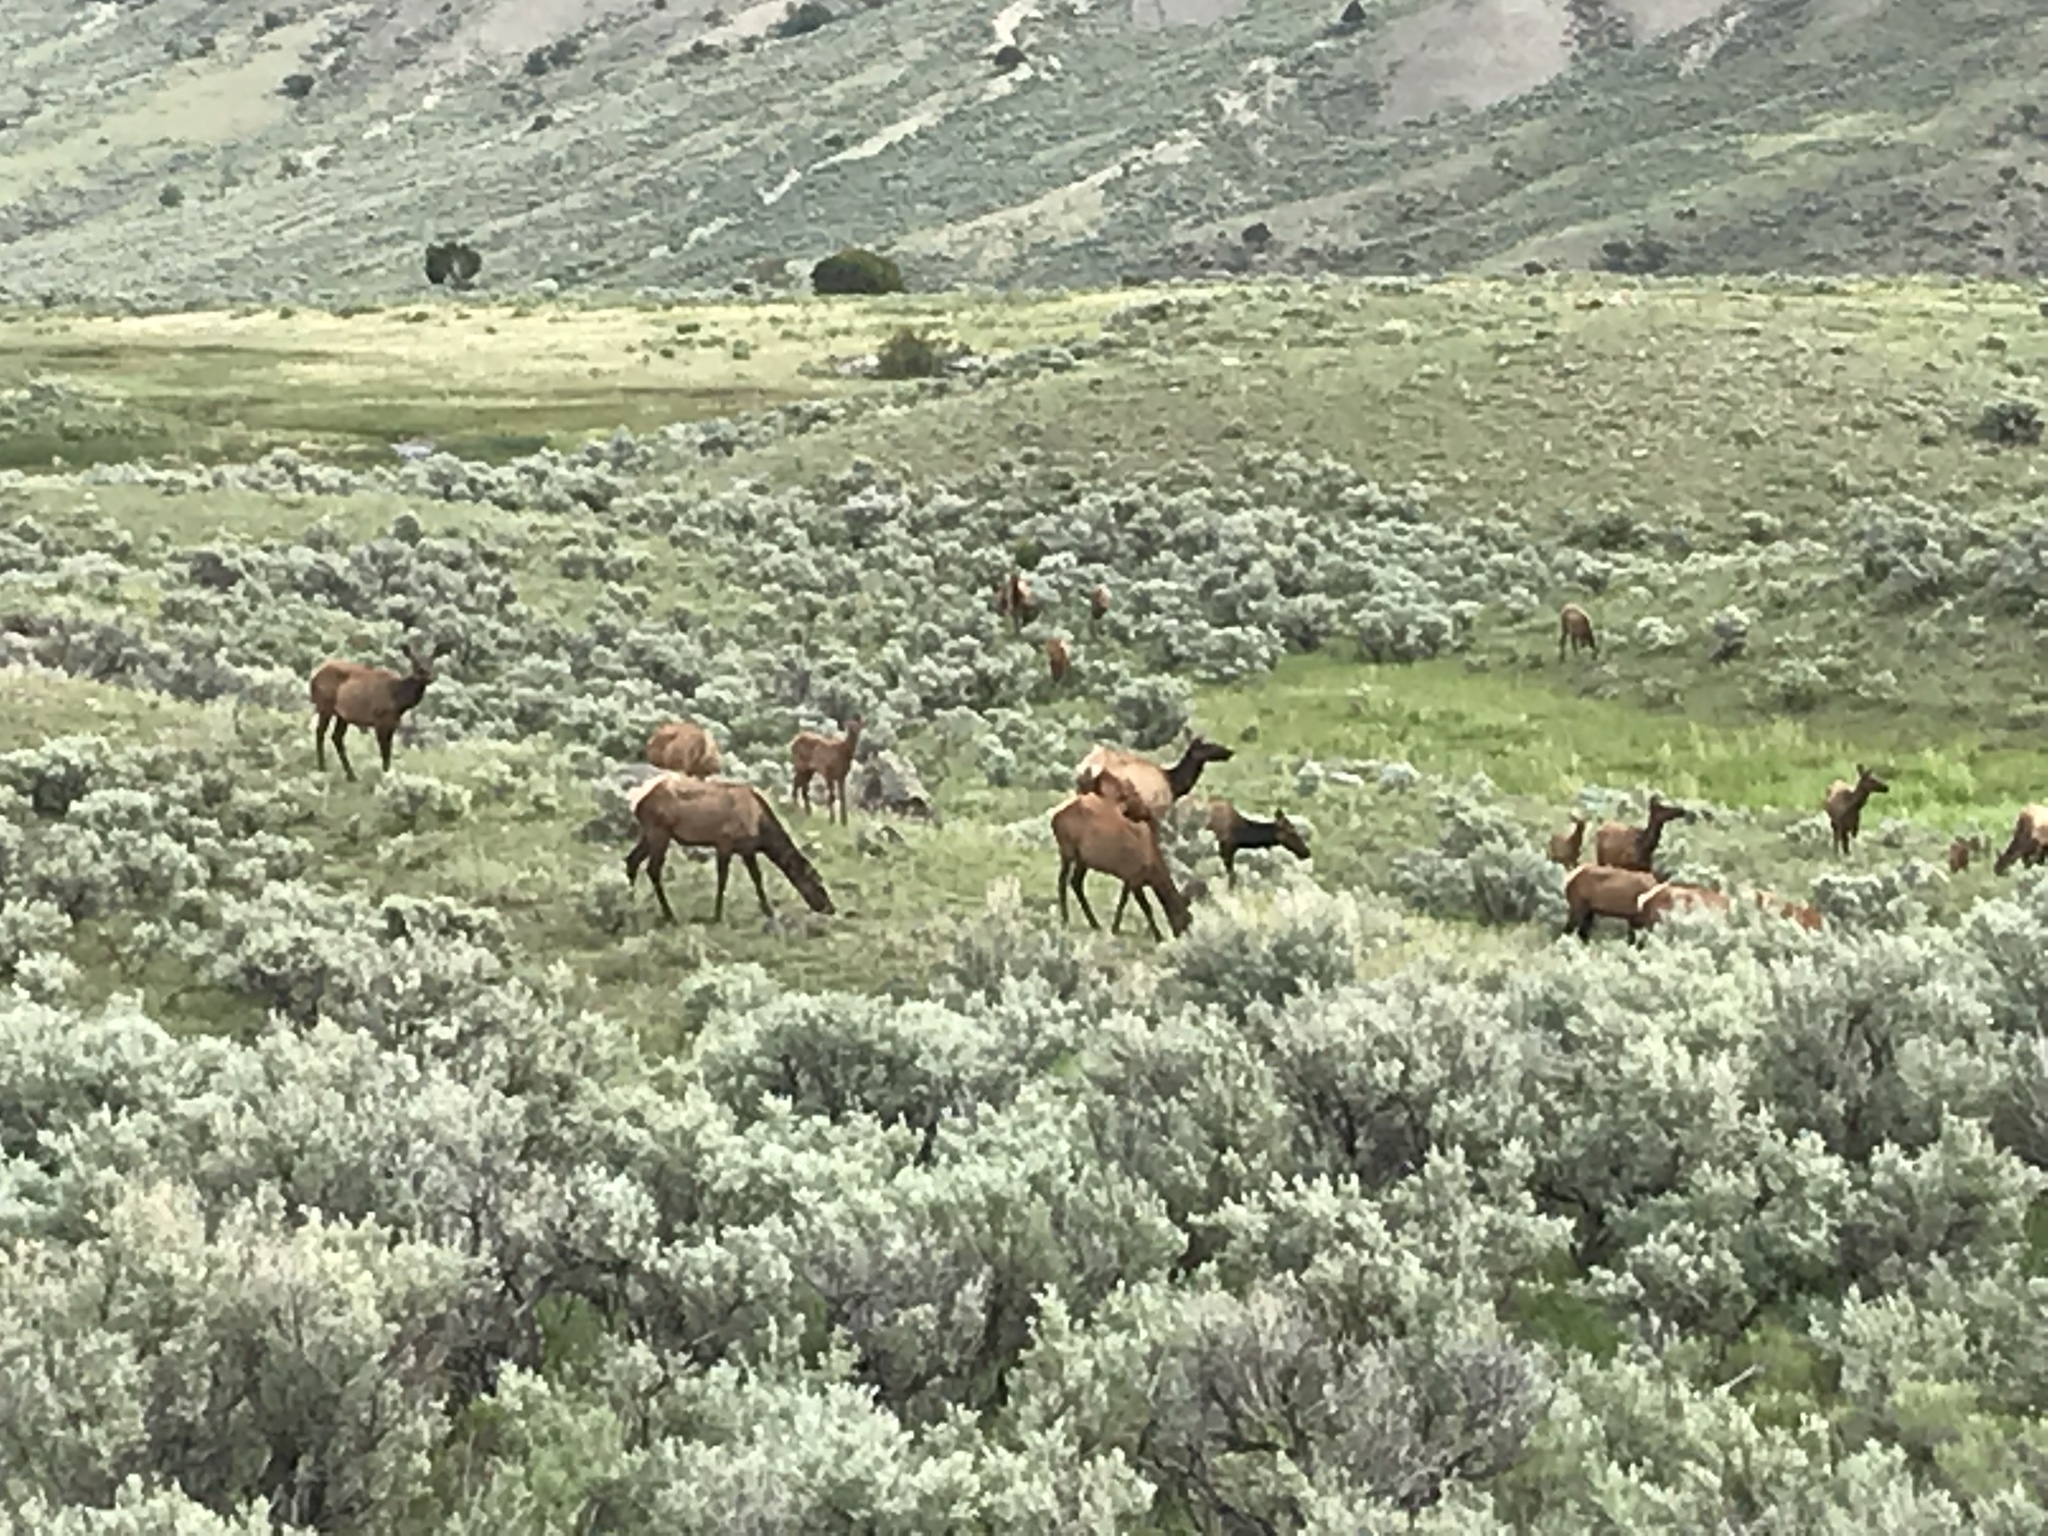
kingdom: Animalia
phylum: Chordata
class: Mammalia
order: Artiodactyla
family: Cervidae
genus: Cervus
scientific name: Cervus elaphus
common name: Red deer
